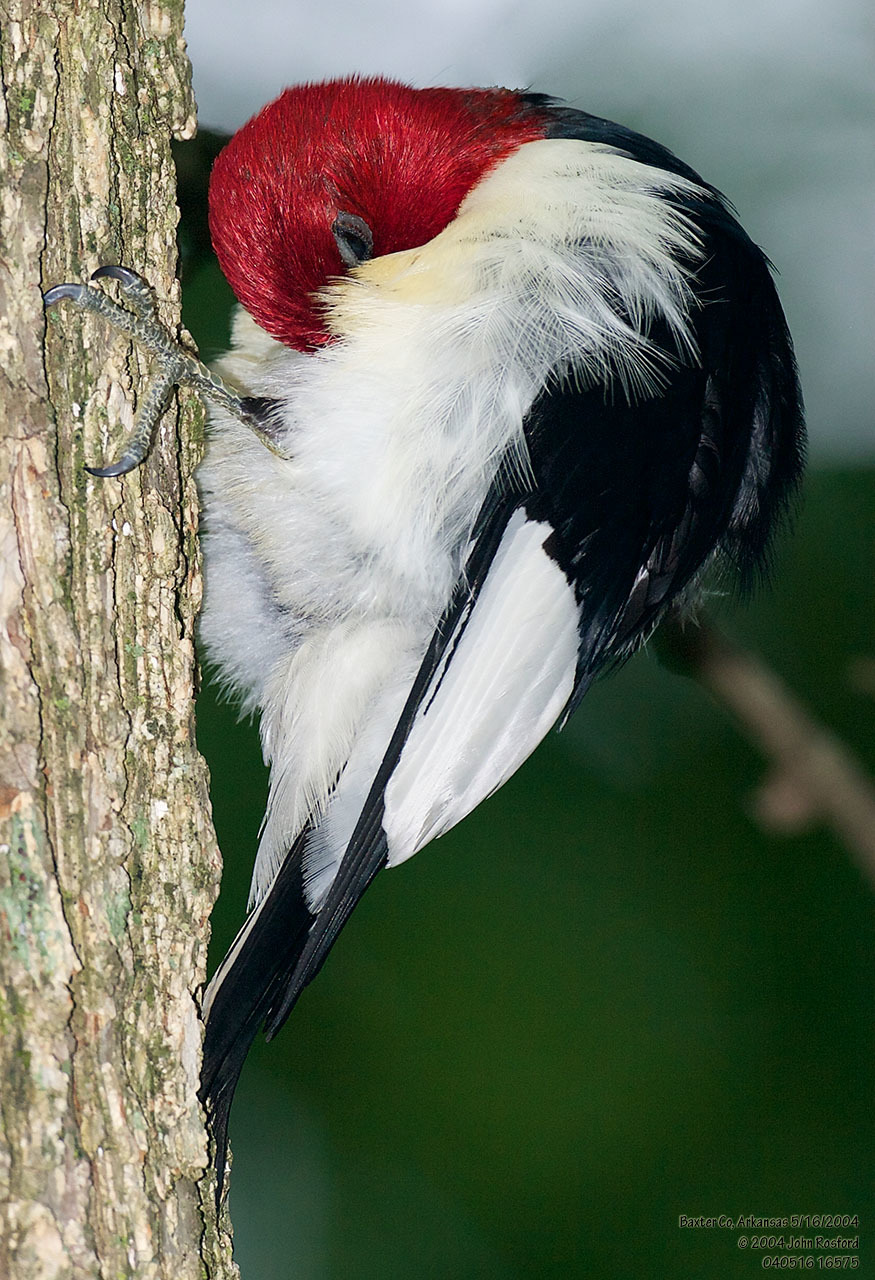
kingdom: Animalia
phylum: Chordata
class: Aves
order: Piciformes
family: Picidae
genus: Melanerpes
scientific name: Melanerpes erythrocephalus
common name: Red-headed woodpecker
